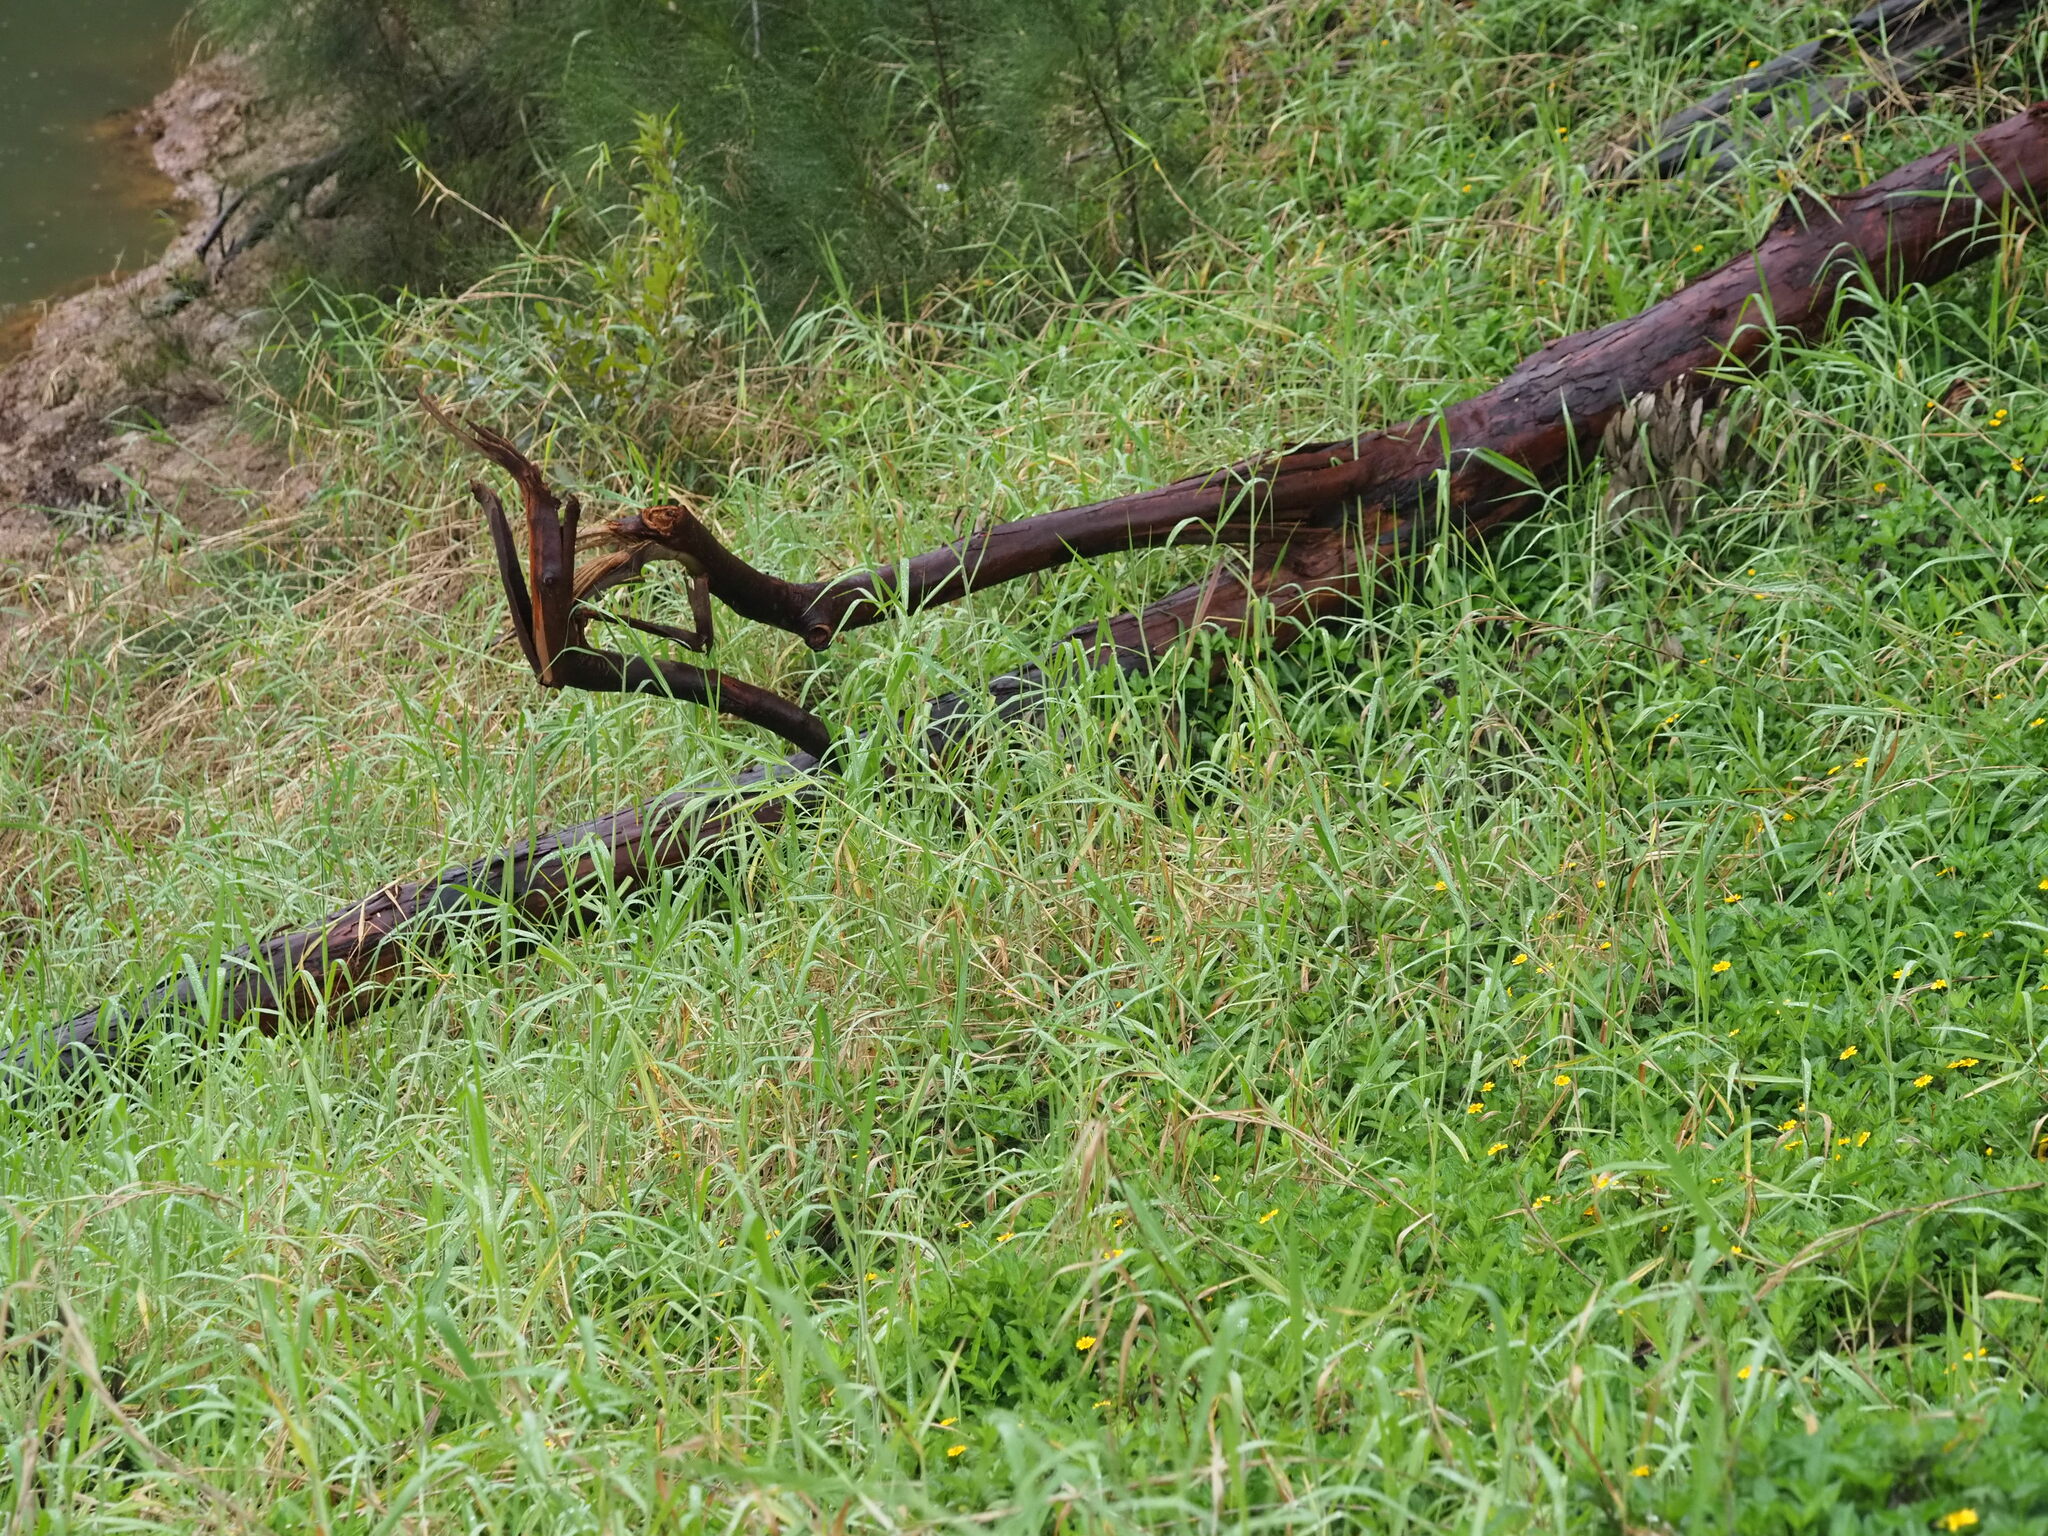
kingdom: Plantae
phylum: Tracheophyta
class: Liliopsida
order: Poales
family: Poaceae
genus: Urochloa
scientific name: Urochloa mutica
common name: Para grass
